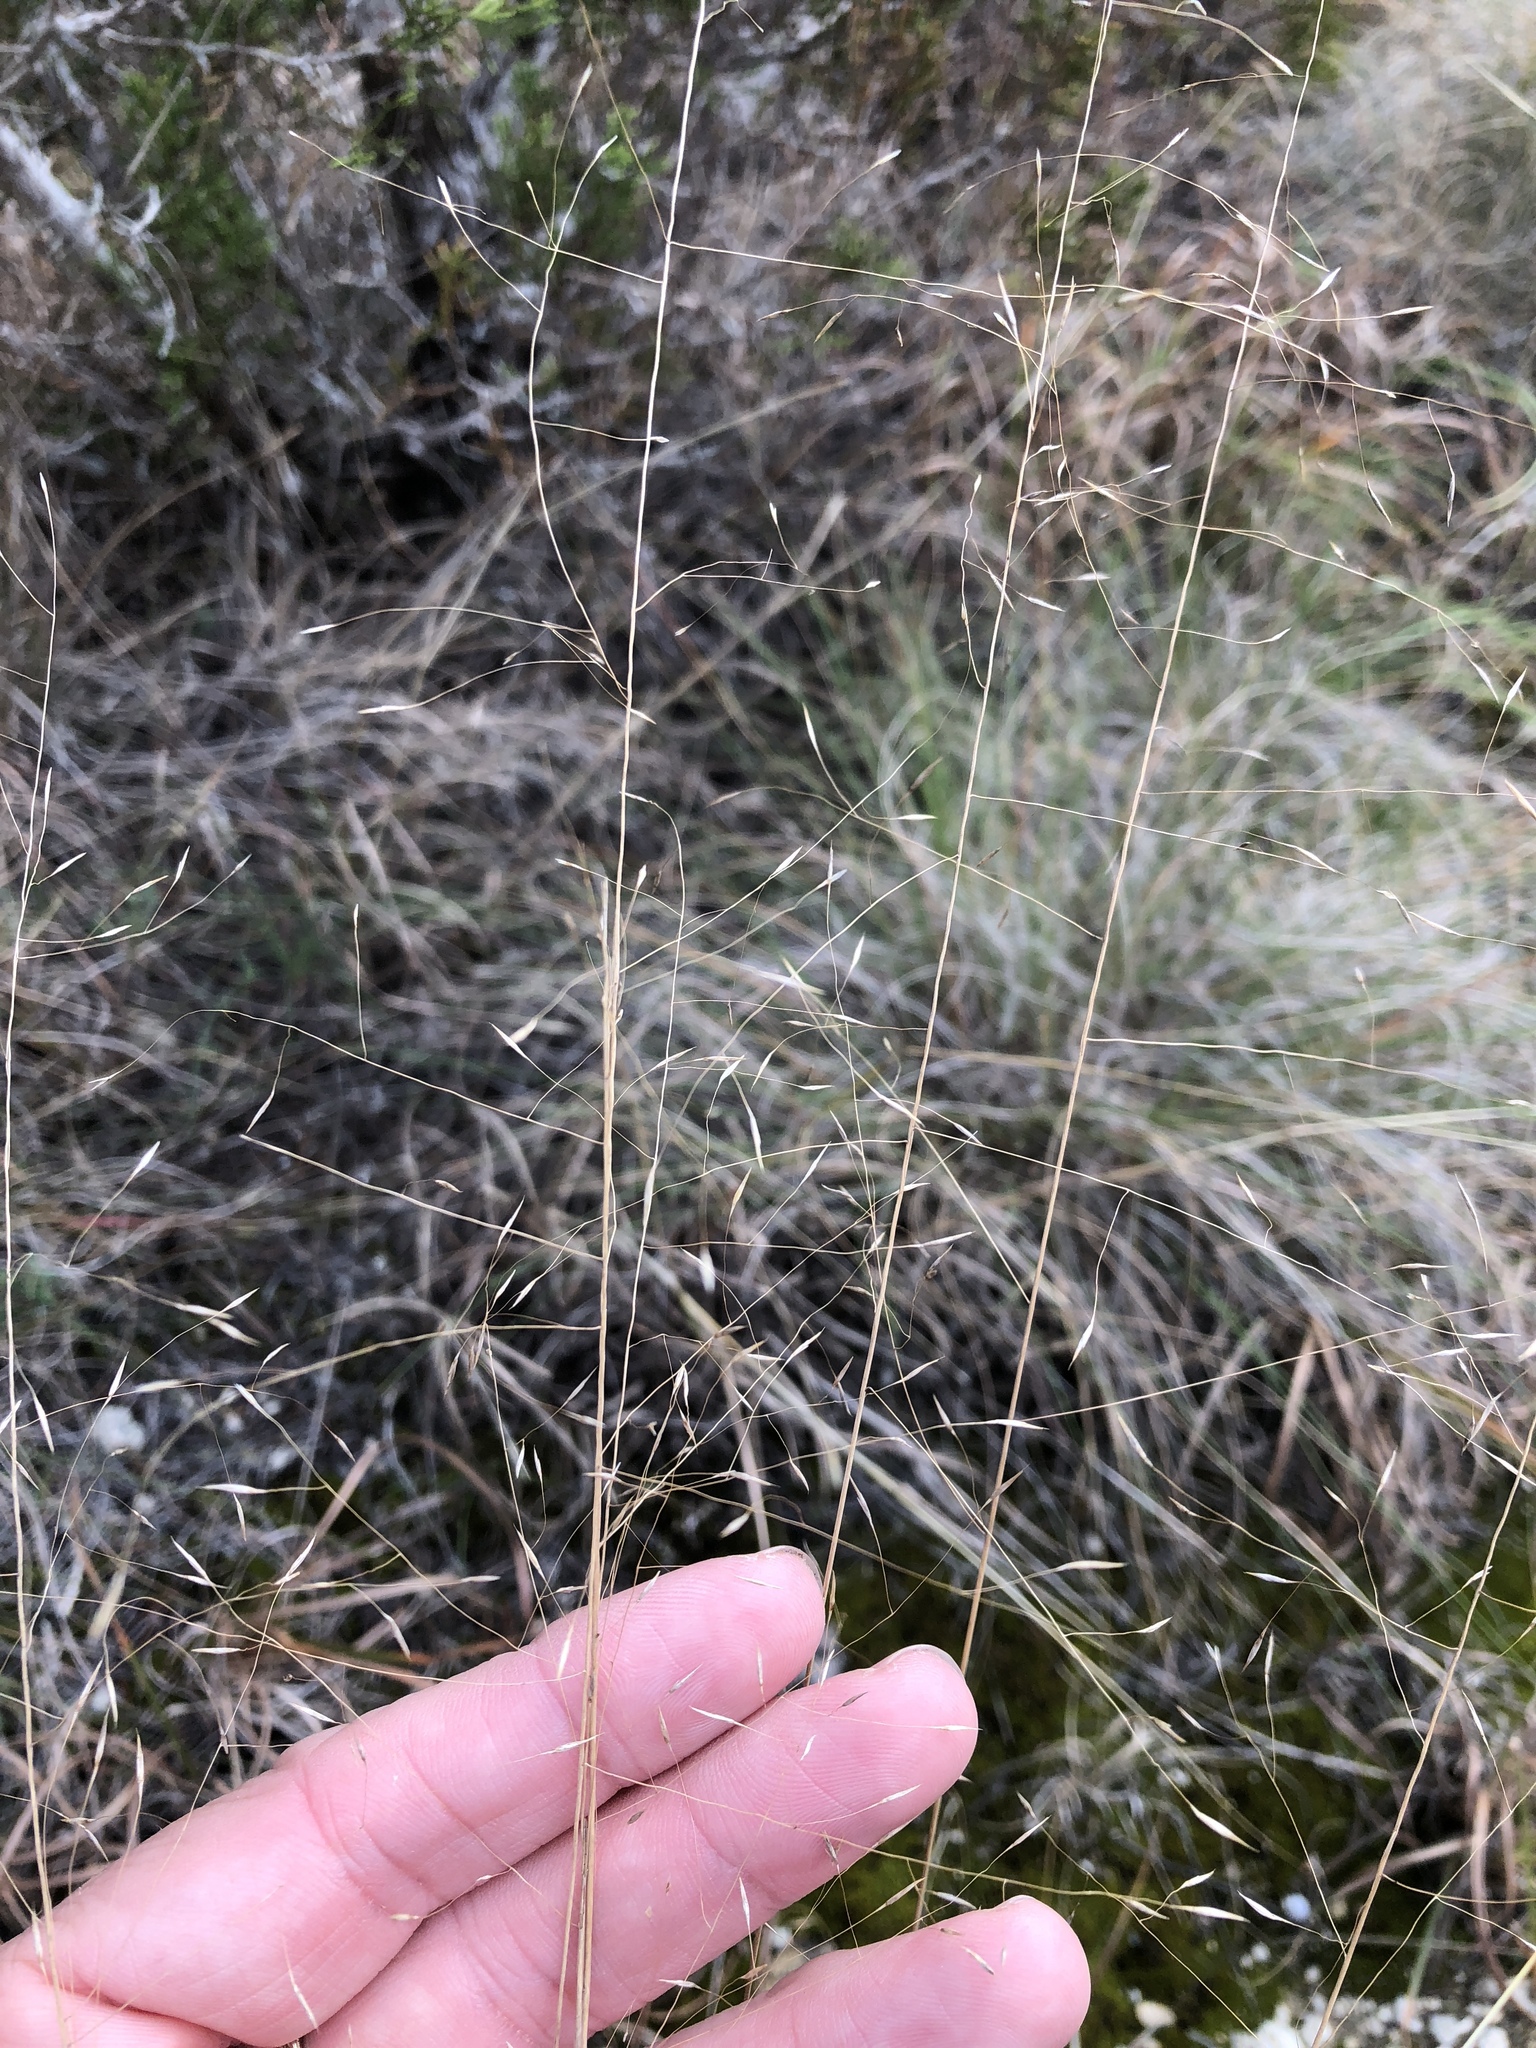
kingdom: Plantae
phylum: Tracheophyta
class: Liliopsida
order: Poales
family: Poaceae
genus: Muhlenbergia
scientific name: Muhlenbergia reverchonii
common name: Seep muhly
